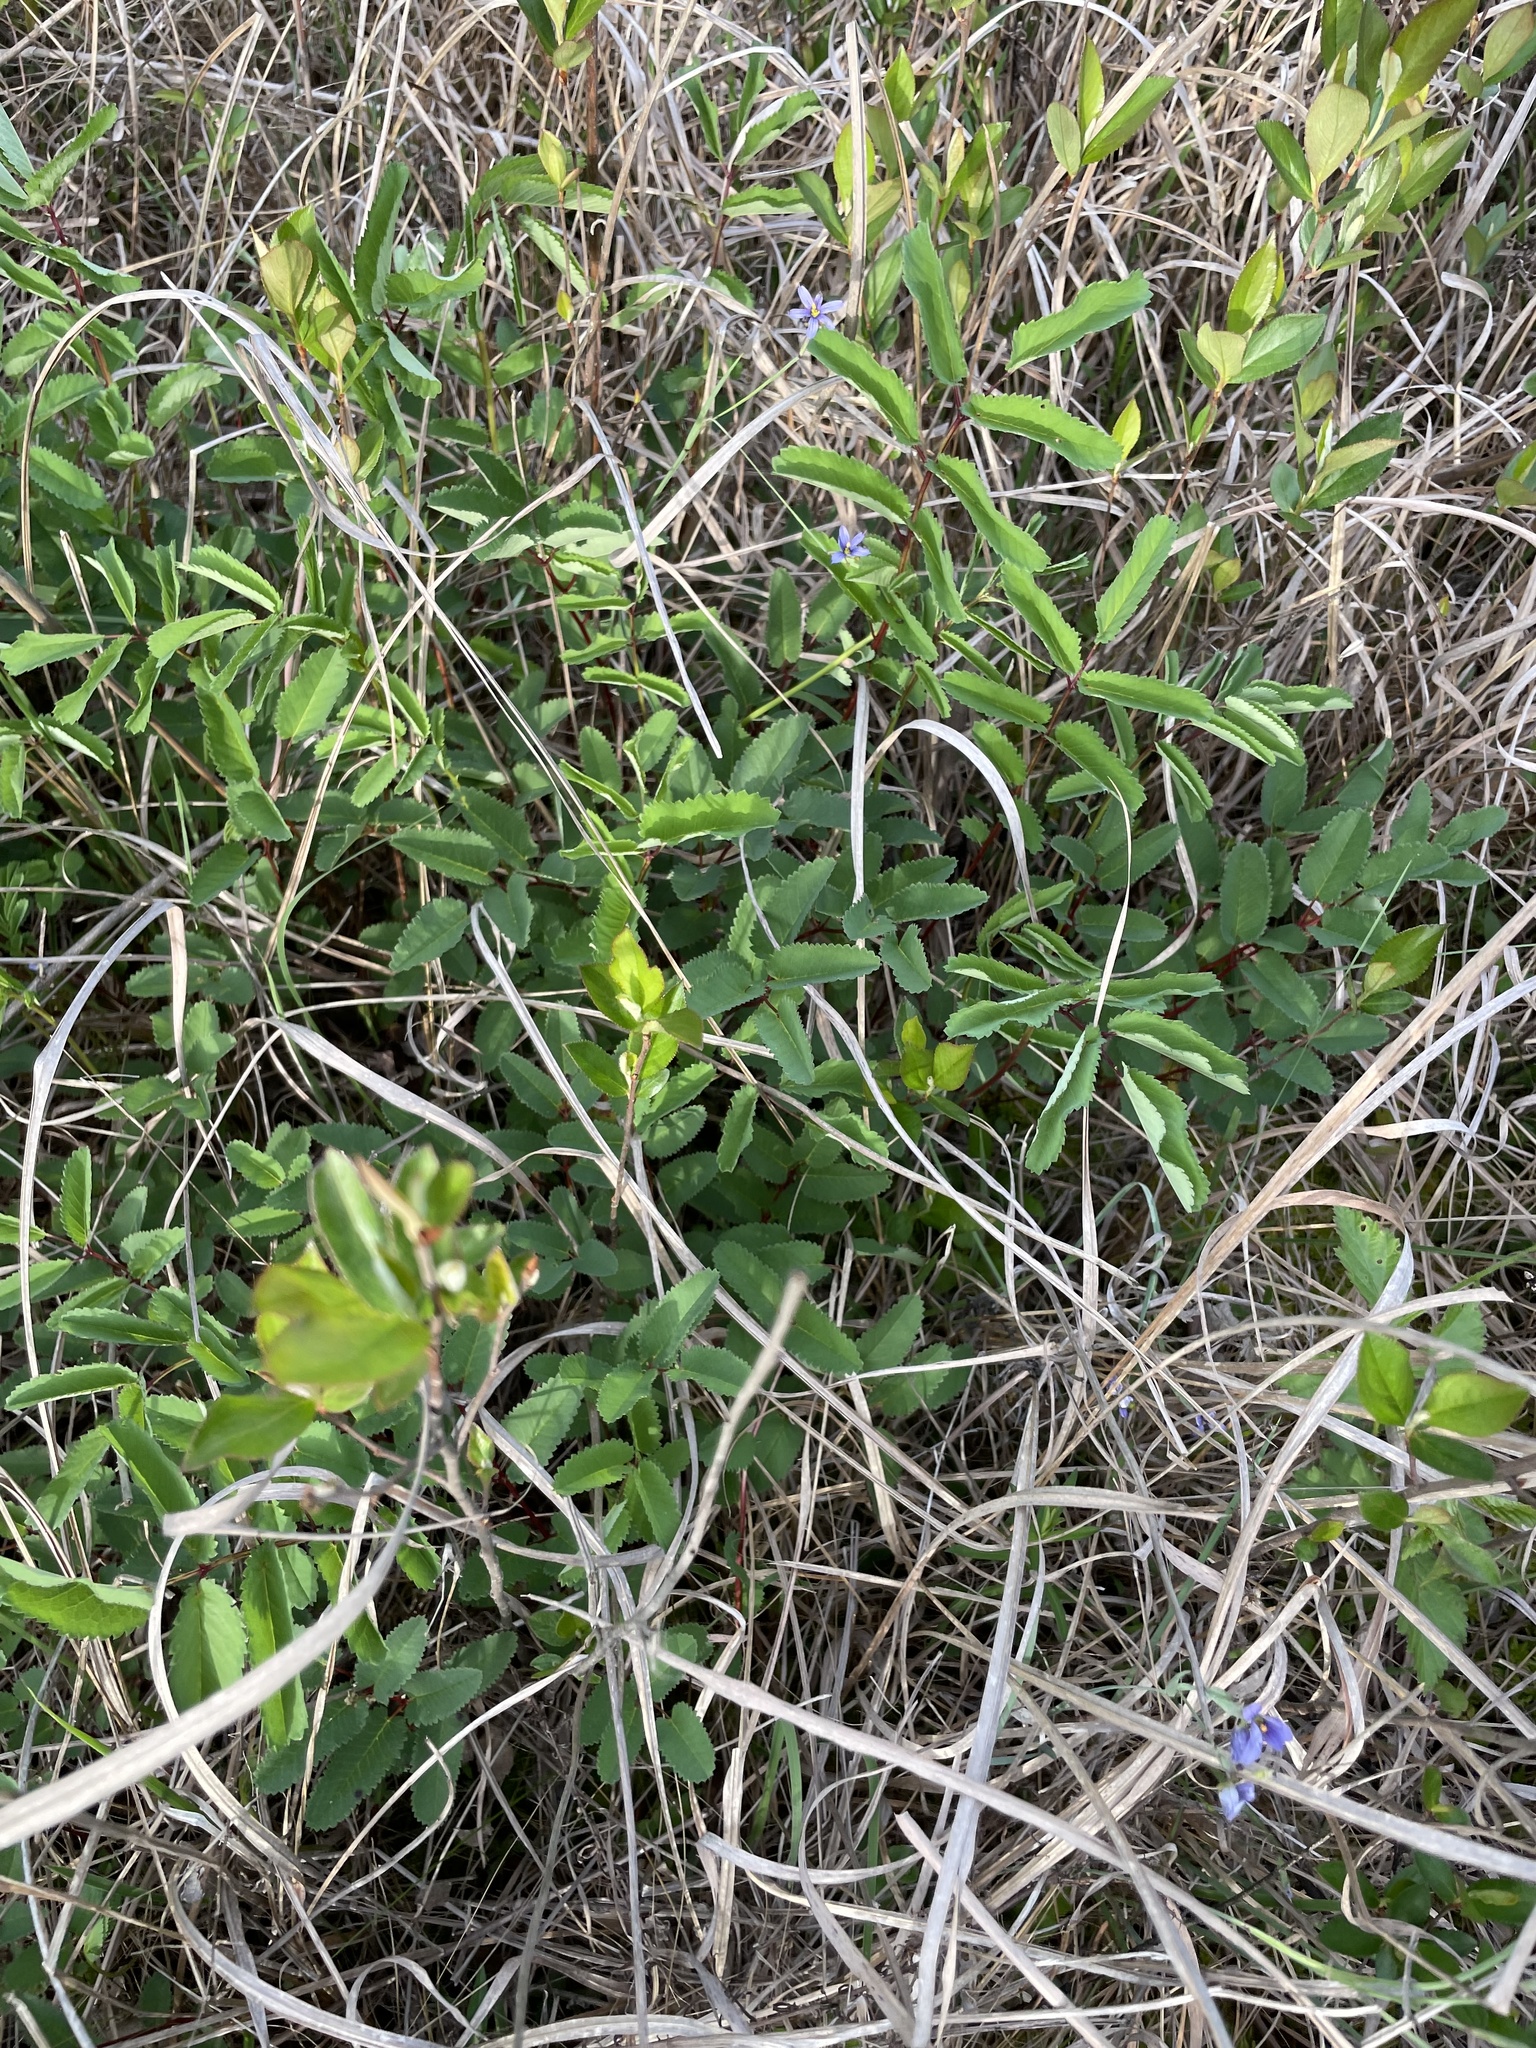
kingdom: Plantae
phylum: Tracheophyta
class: Magnoliopsida
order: Rosales
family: Rosaceae
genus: Sanguisorba
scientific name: Sanguisorba canadensis
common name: White burnet
